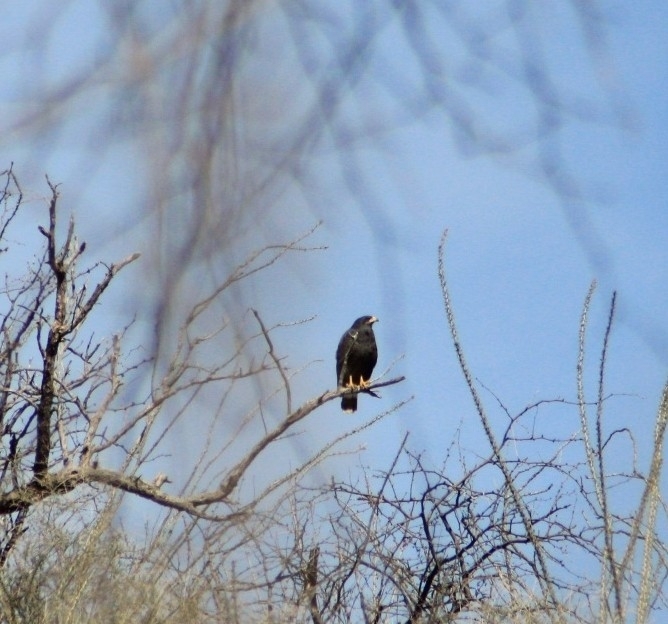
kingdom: Animalia
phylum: Chordata
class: Aves
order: Accipitriformes
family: Accipitridae
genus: Buteogallus
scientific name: Buteogallus anthracinus
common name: Common black hawk
